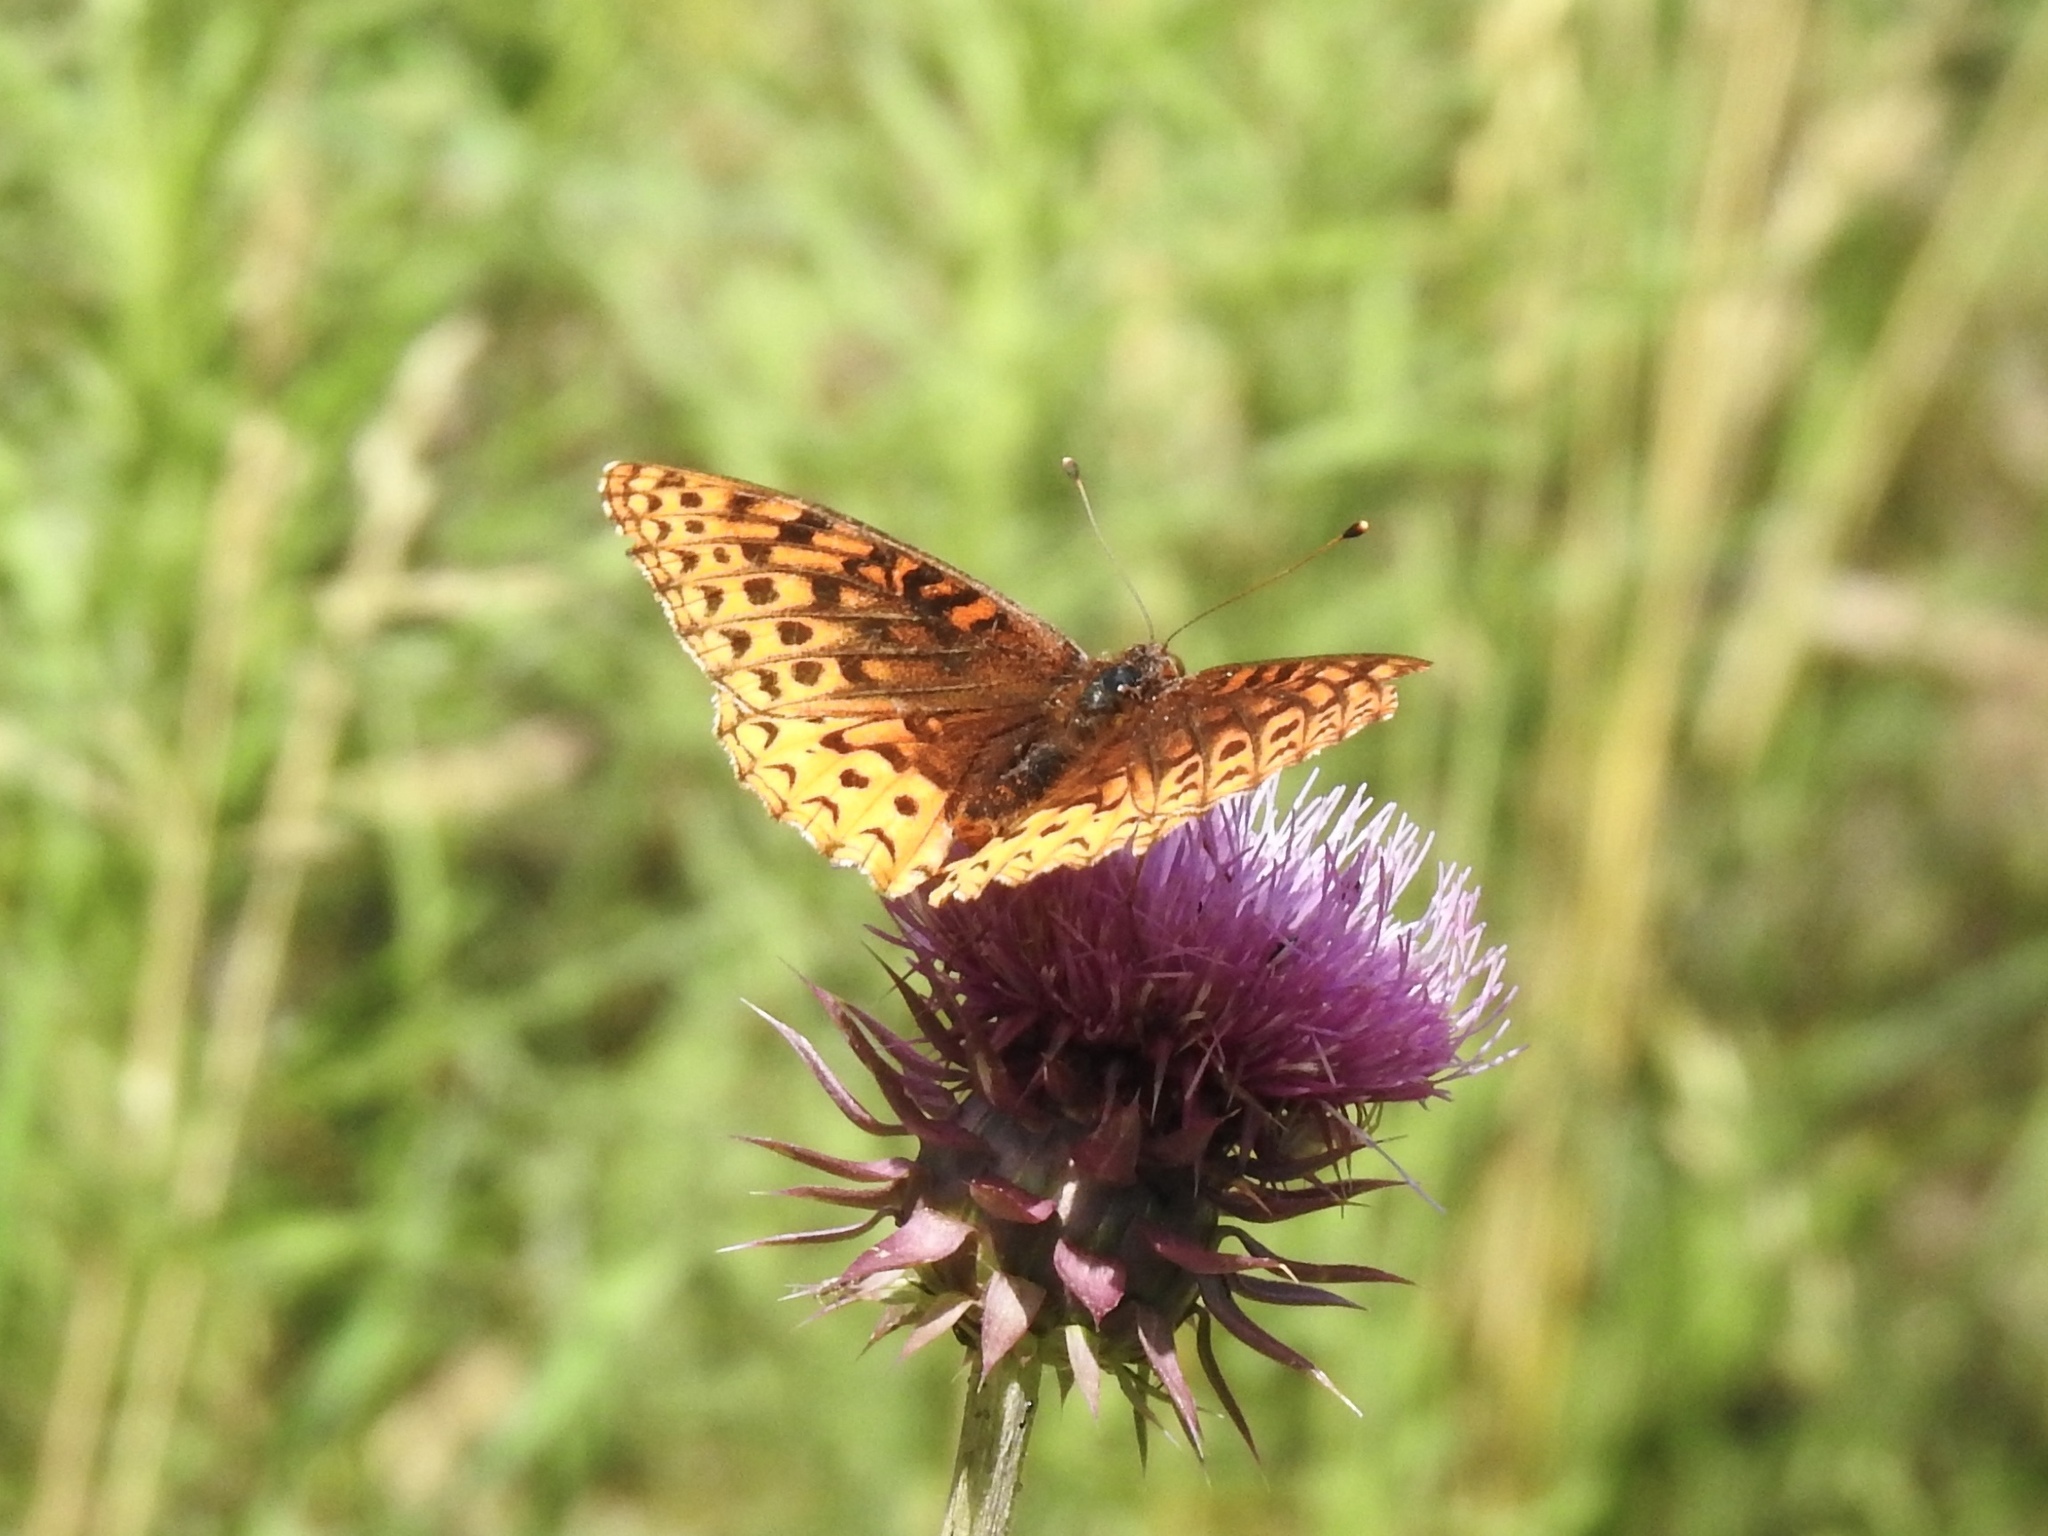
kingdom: Animalia
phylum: Arthropoda
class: Insecta
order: Lepidoptera
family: Nymphalidae
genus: Speyeria
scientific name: Speyeria atlantis
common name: Atlantis fritillary
